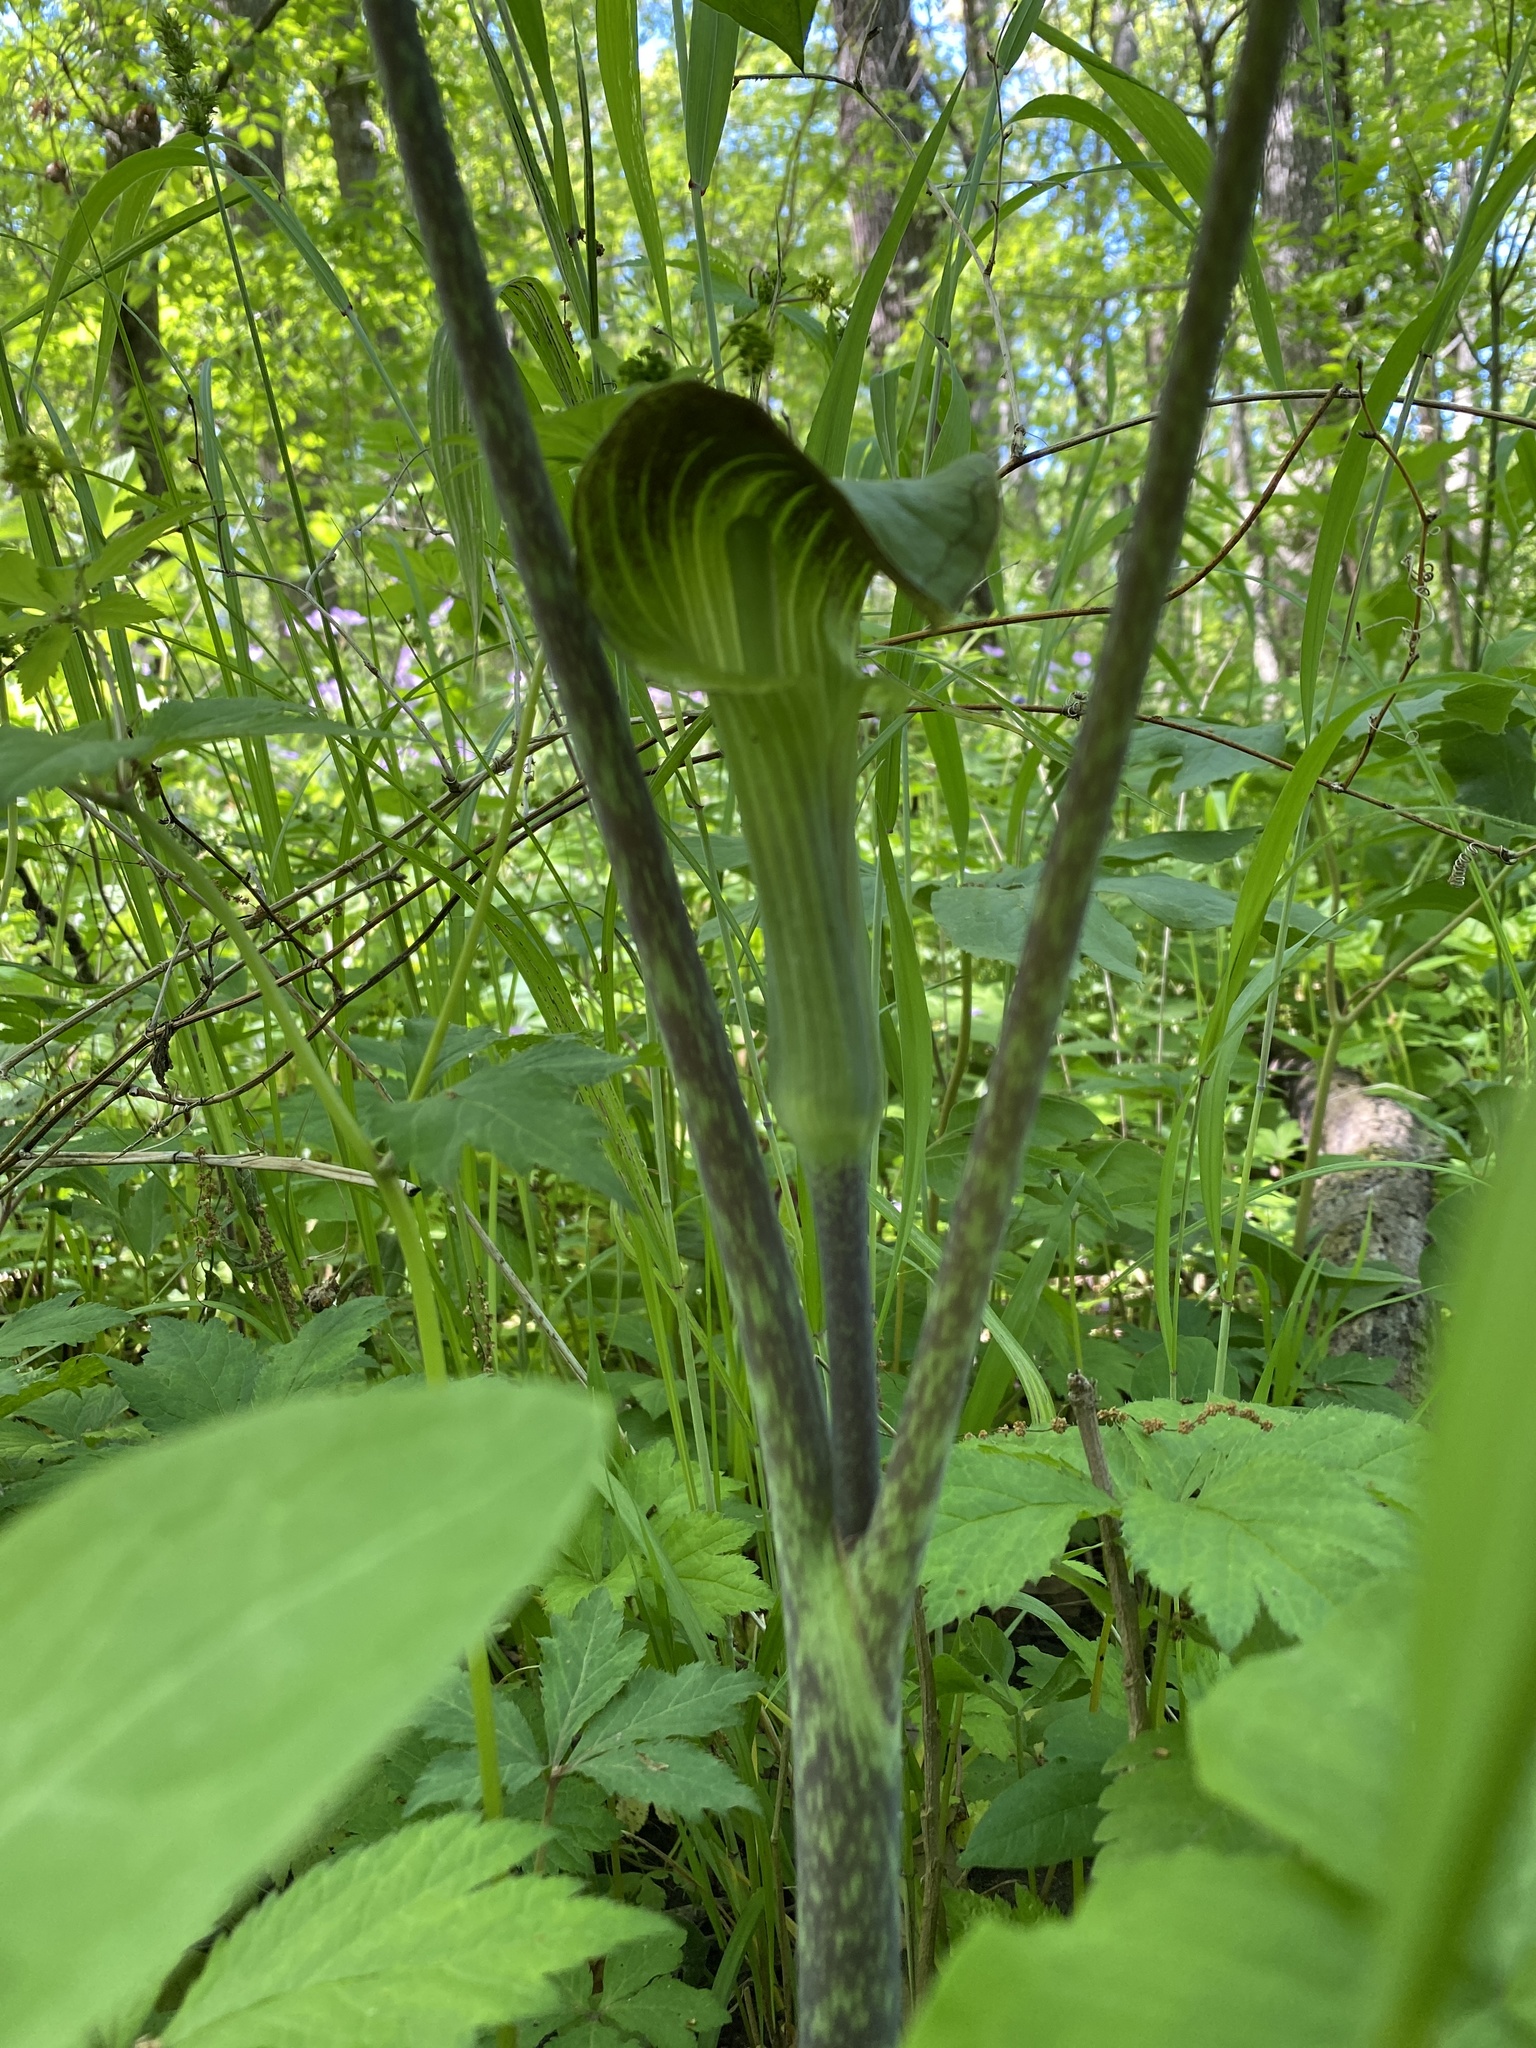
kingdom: Plantae
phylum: Tracheophyta
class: Liliopsida
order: Alismatales
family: Araceae
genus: Arisaema
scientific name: Arisaema triphyllum
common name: Jack-in-the-pulpit
